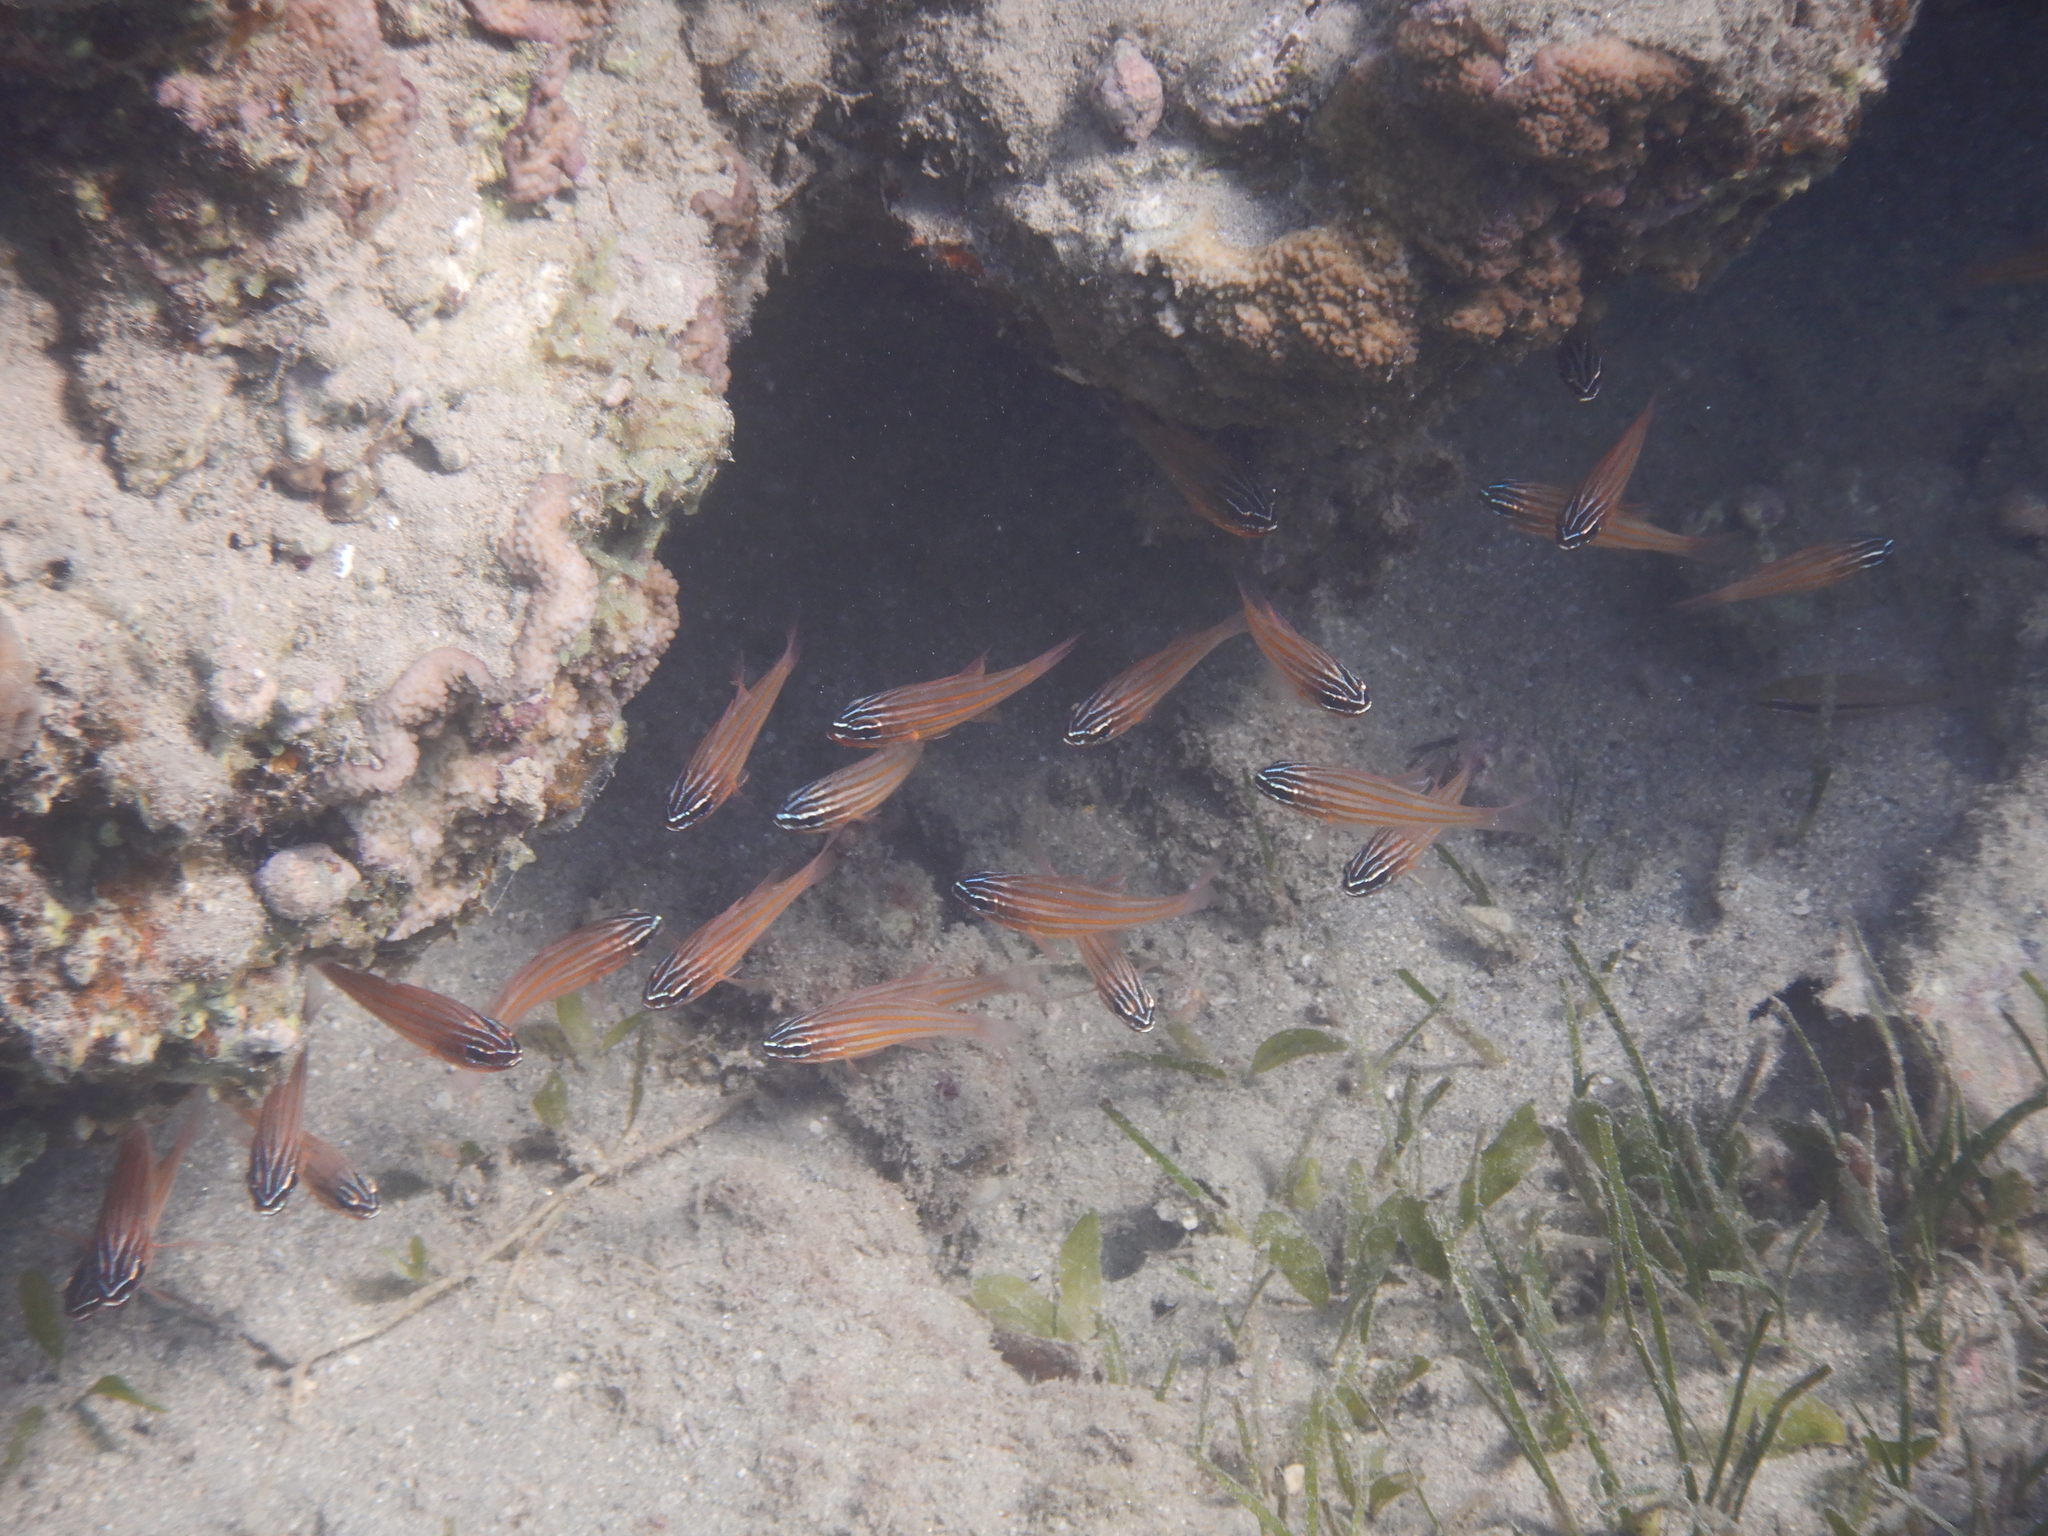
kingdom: Animalia
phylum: Chordata
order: Perciformes
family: Apogonidae
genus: Ostorhinchus
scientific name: Ostorhinchus cyanosoma
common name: Yellow-striped cardinalfish
